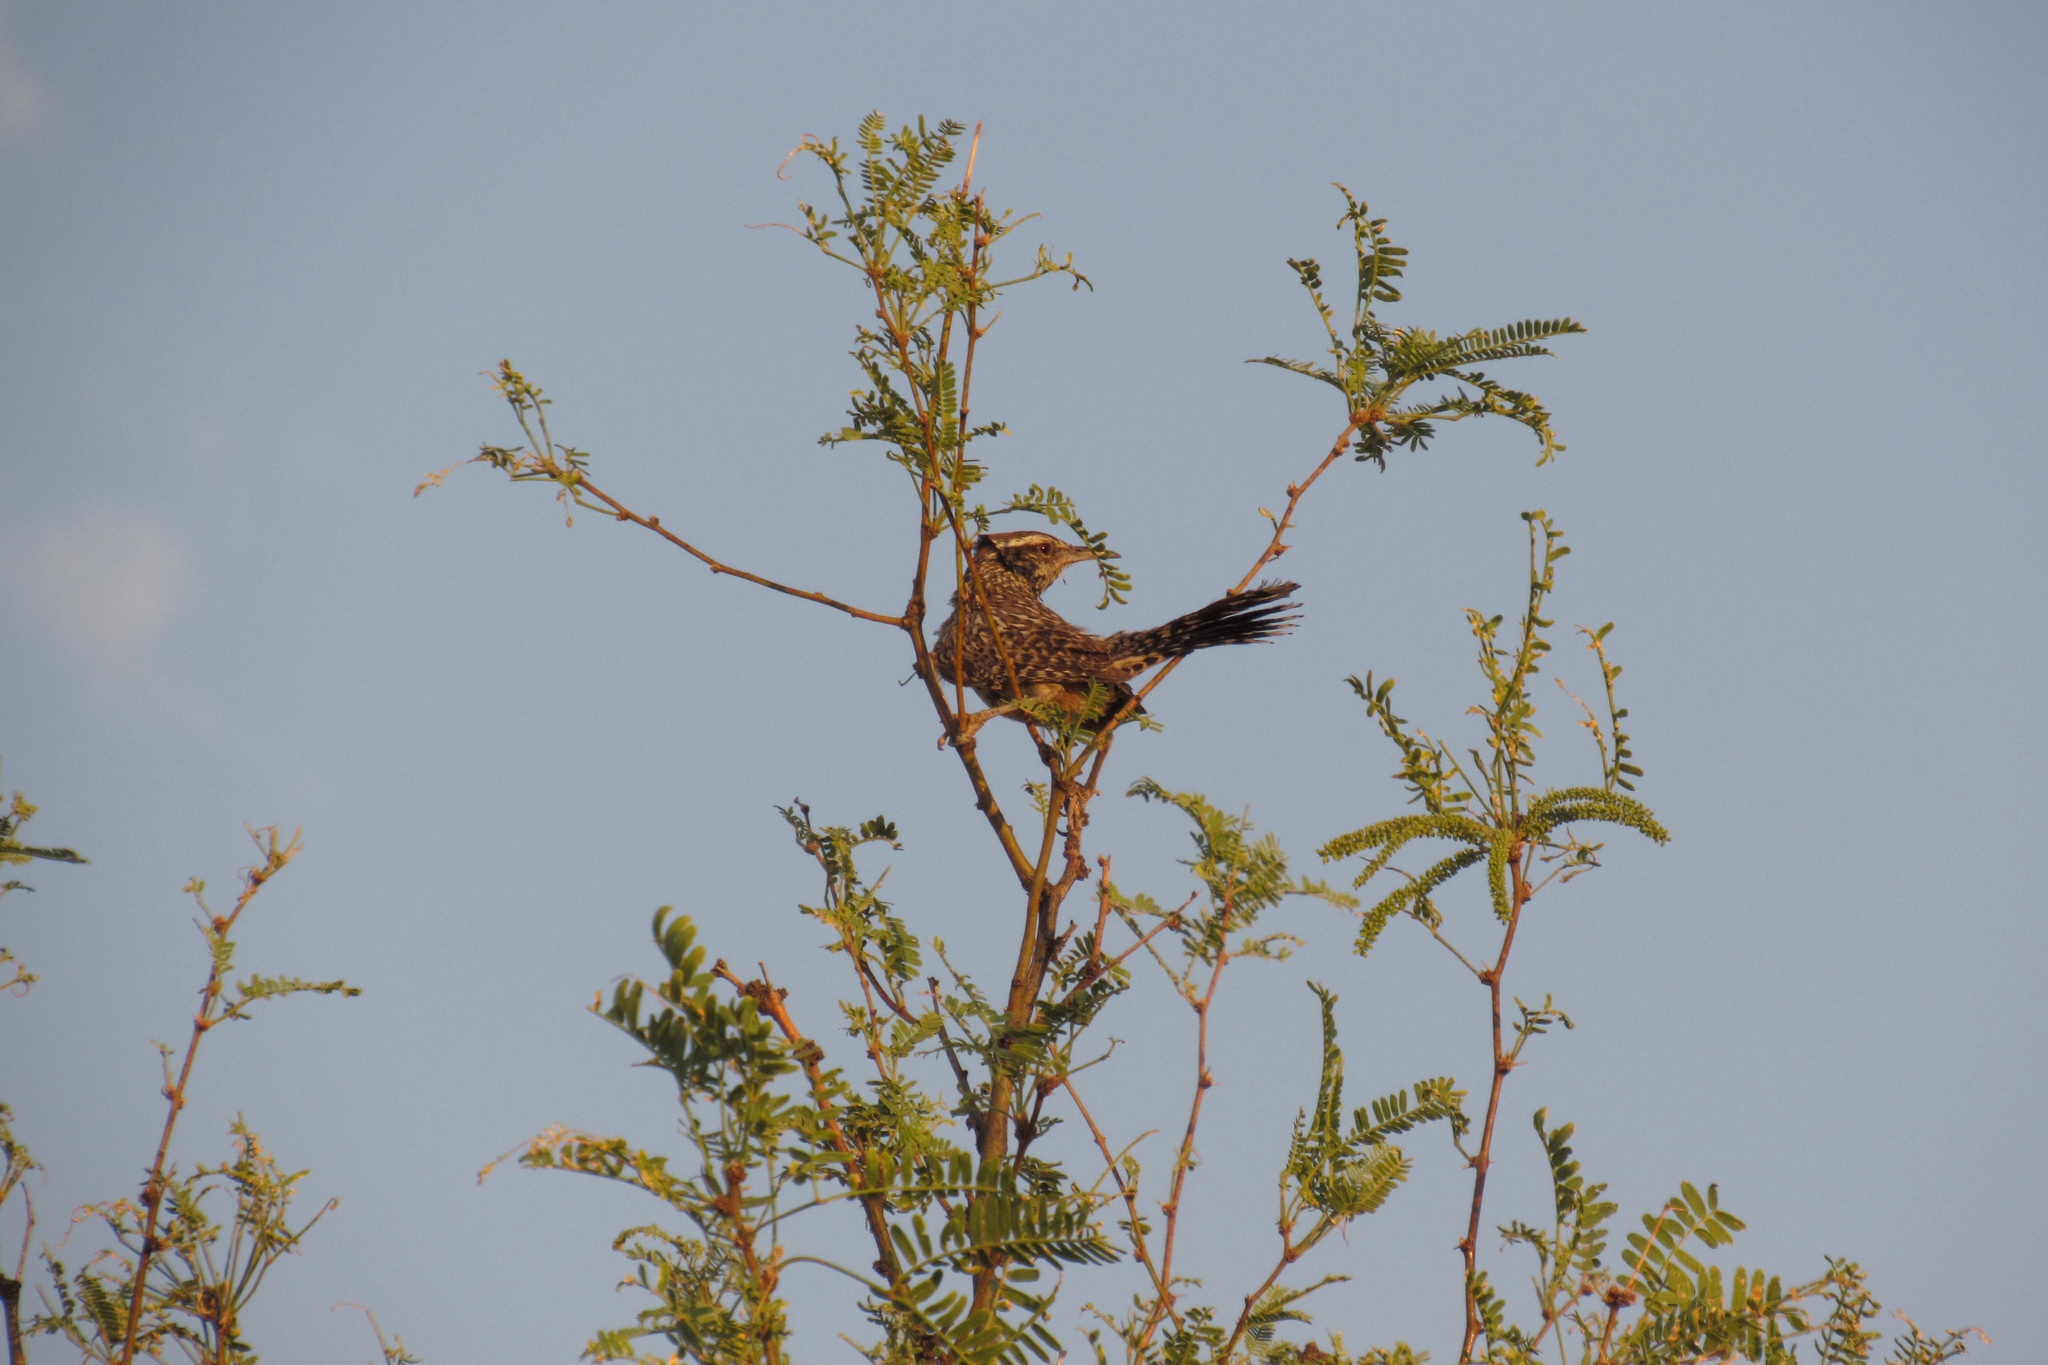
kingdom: Animalia
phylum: Chordata
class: Aves
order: Passeriformes
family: Troglodytidae
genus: Campylorhynchus
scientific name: Campylorhynchus brunneicapillus
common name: Cactus wren
